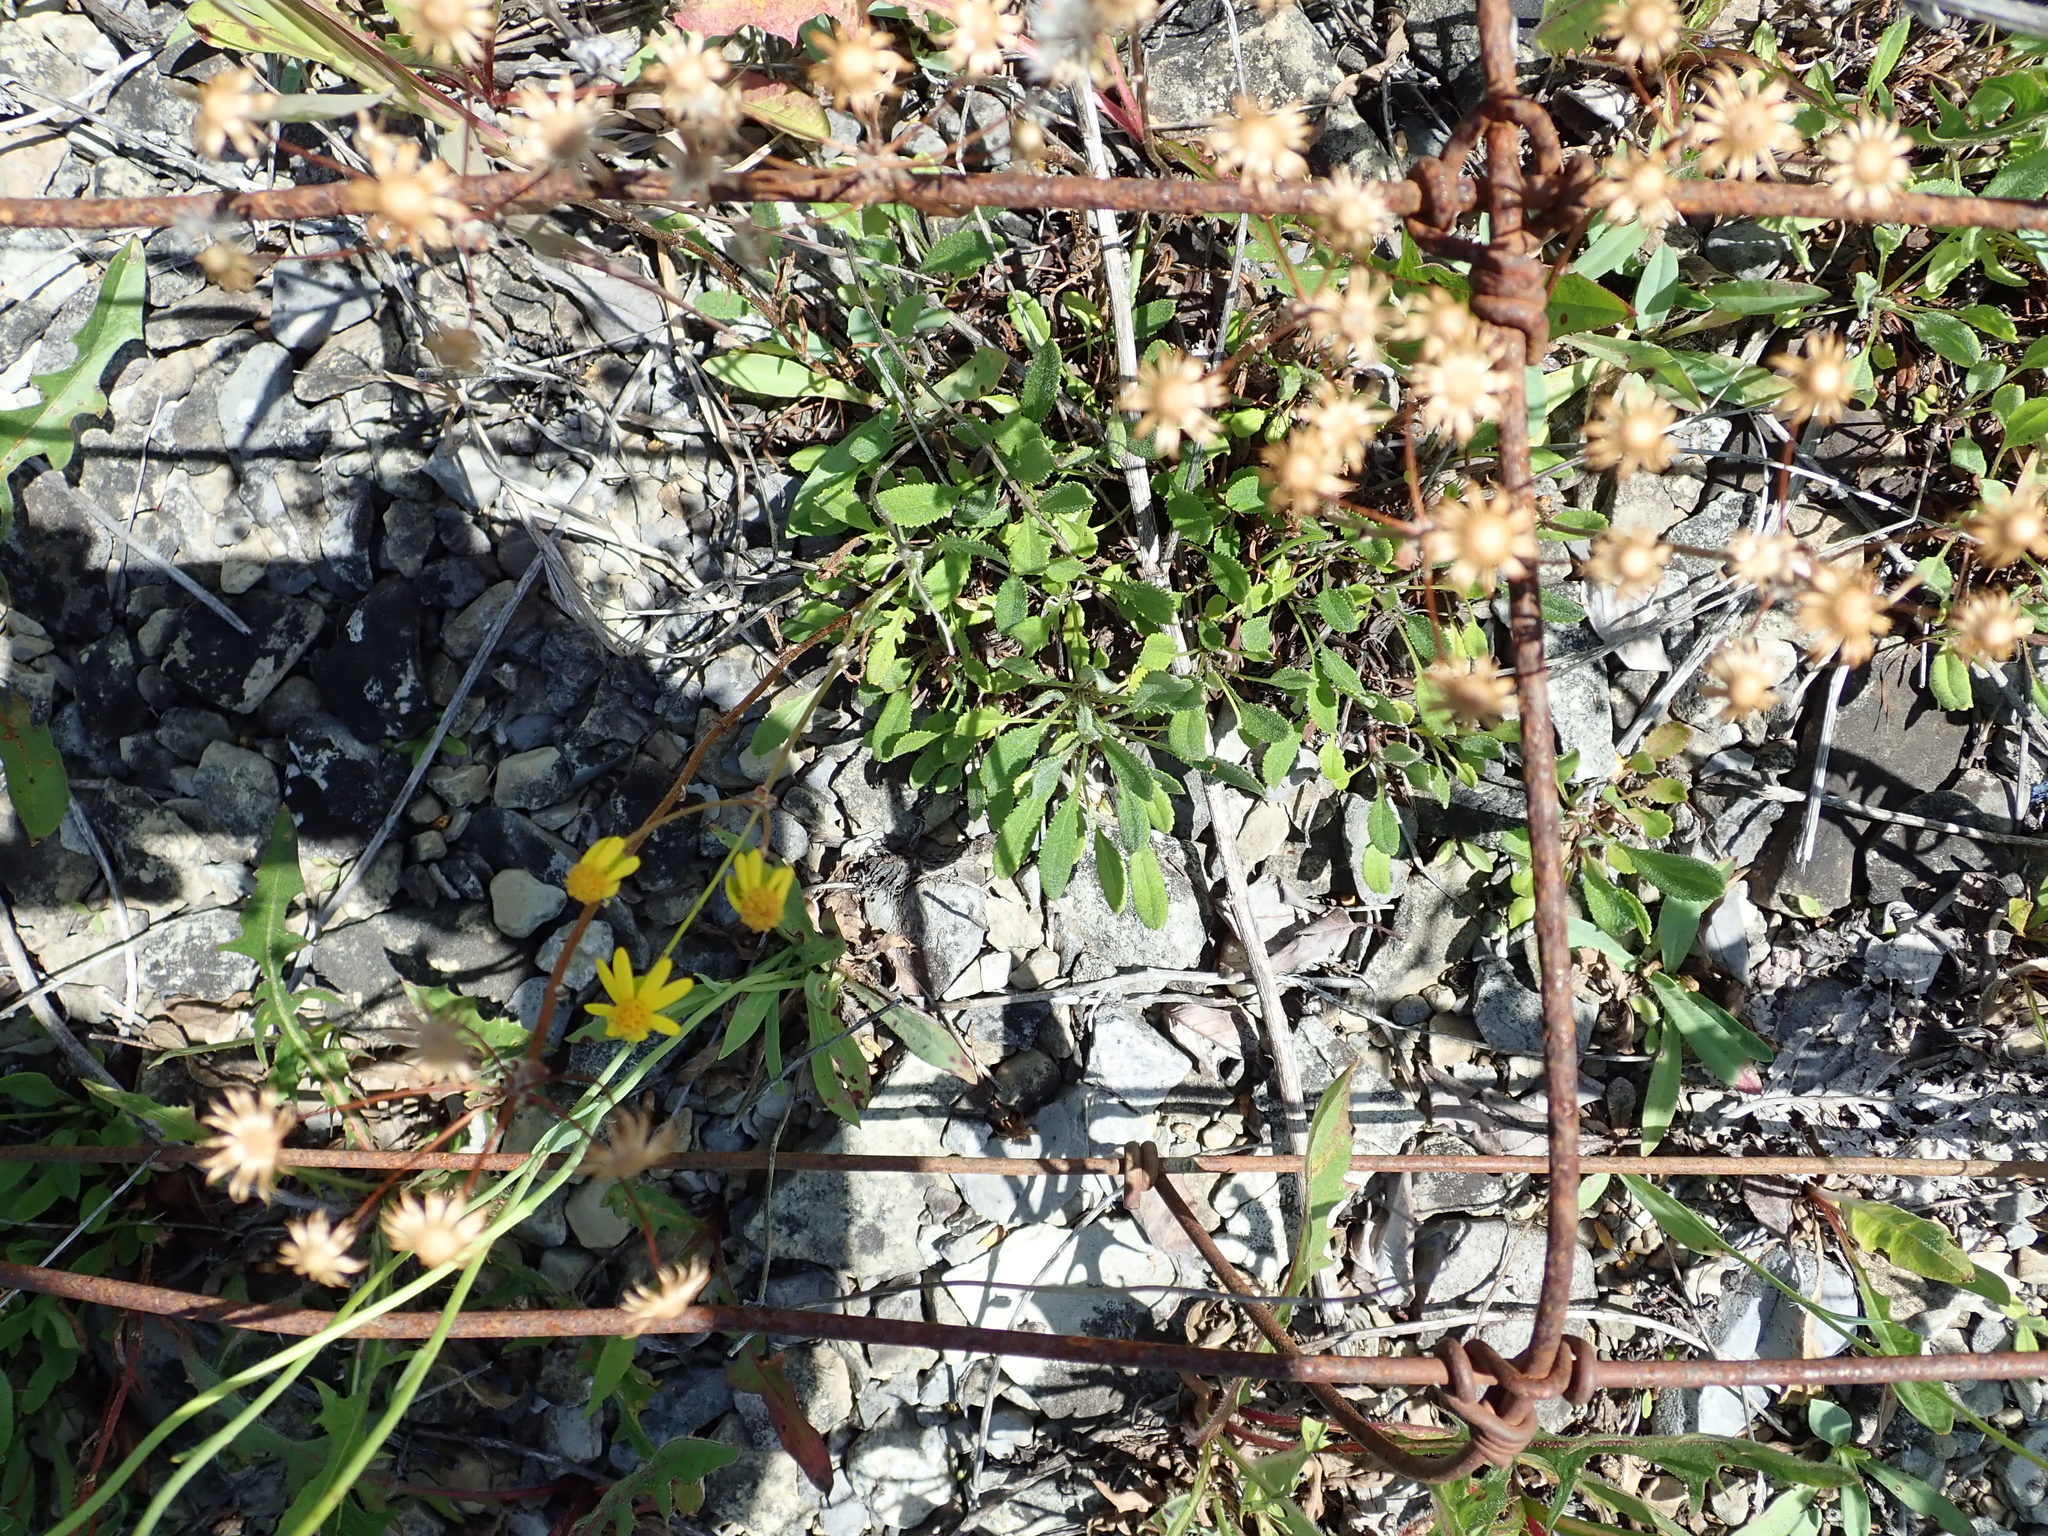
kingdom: Plantae
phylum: Tracheophyta
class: Magnoliopsida
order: Asterales
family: Asteraceae
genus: Packera
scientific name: Packera paupercula
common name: Balsam groundsel
